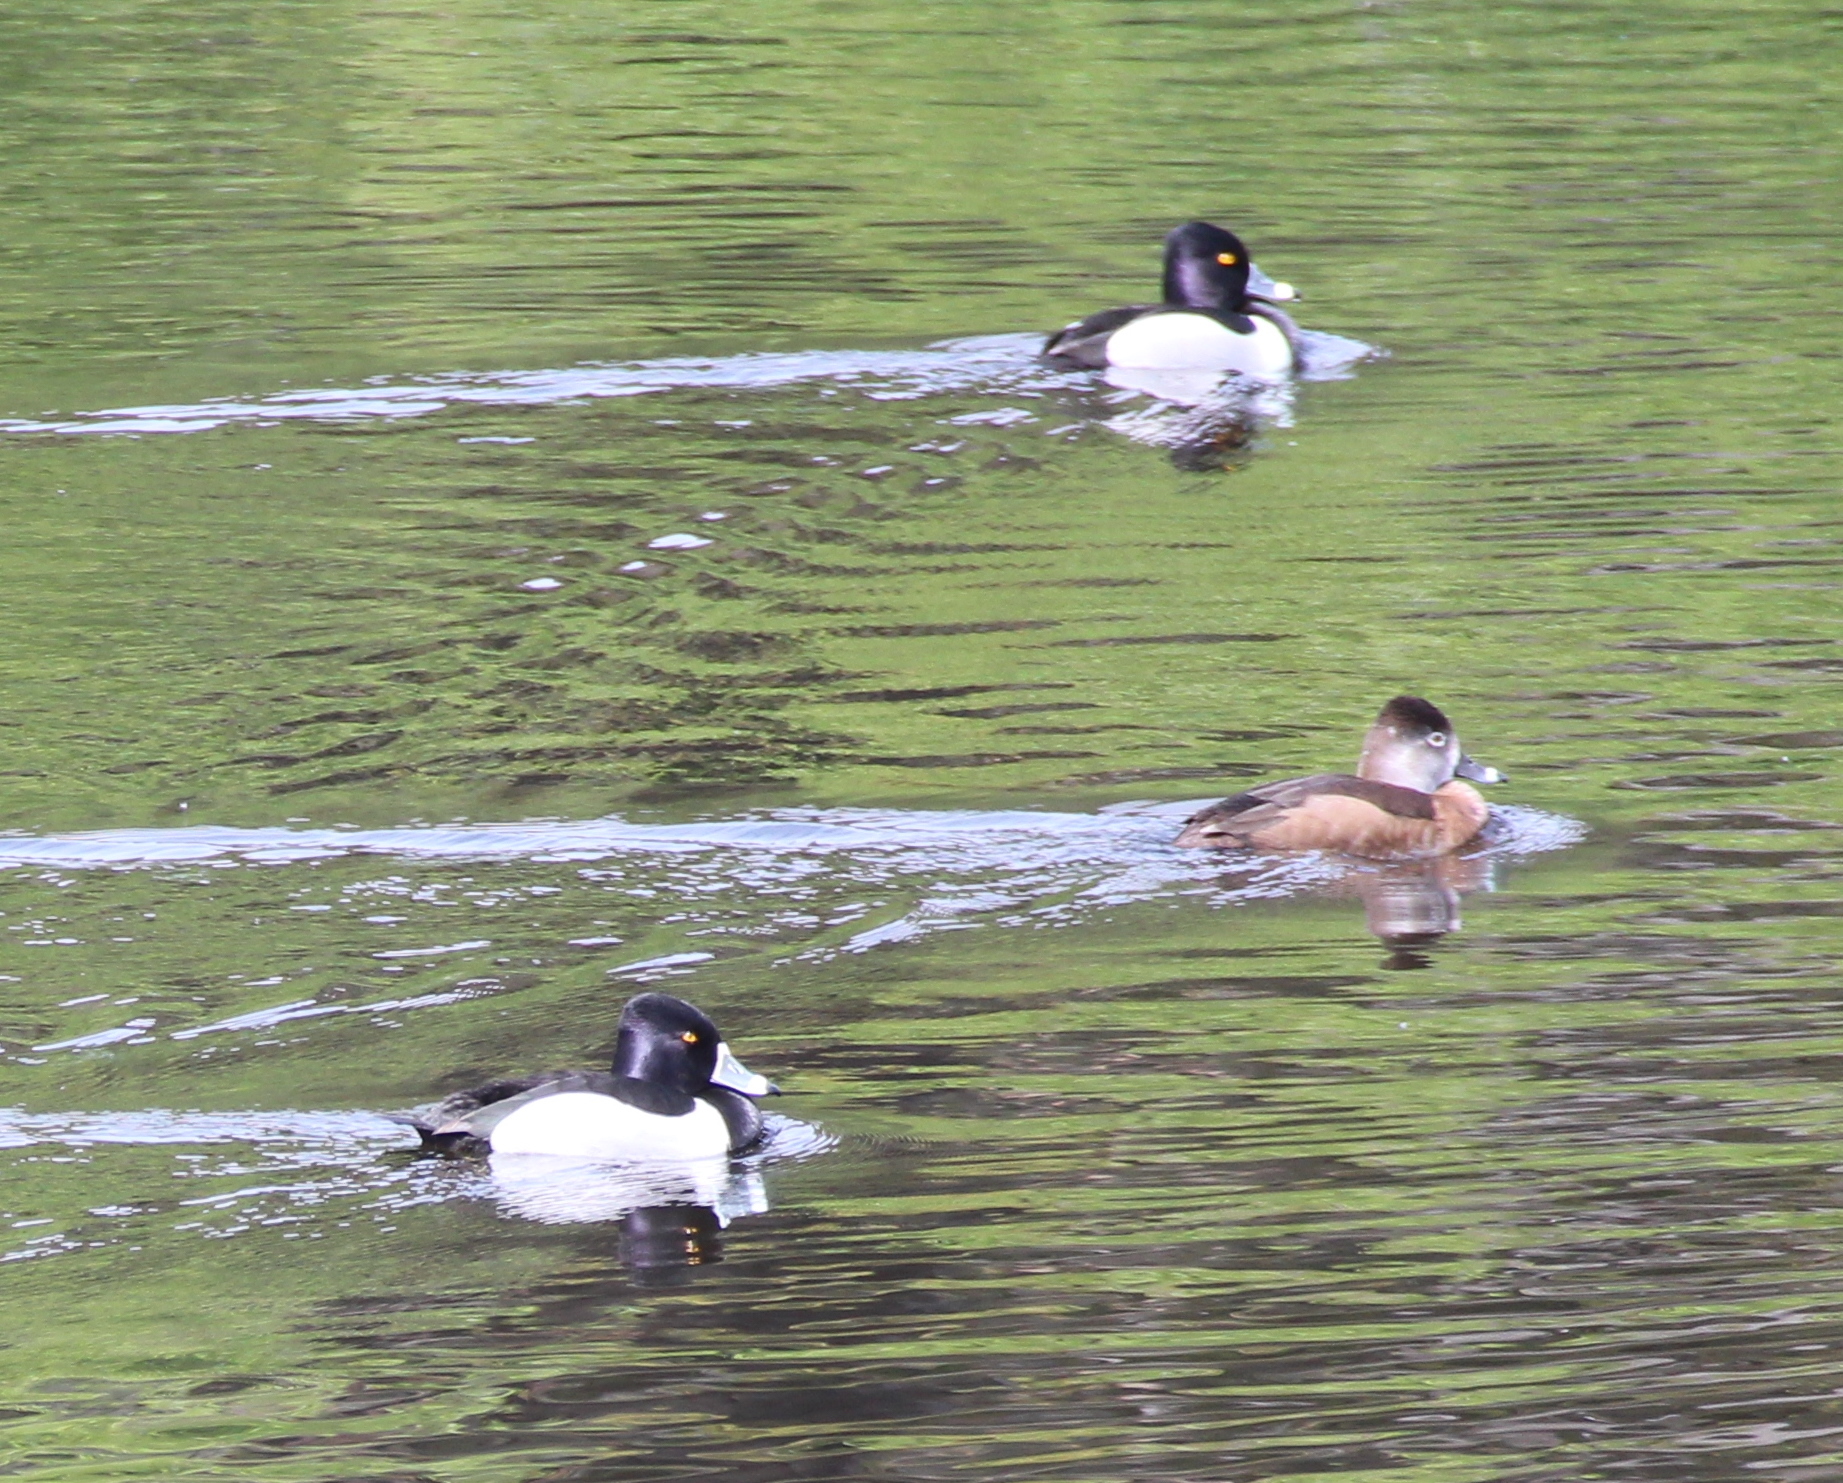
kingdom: Animalia
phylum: Chordata
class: Aves
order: Anseriformes
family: Anatidae
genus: Aythya
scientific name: Aythya collaris
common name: Ring-necked duck
